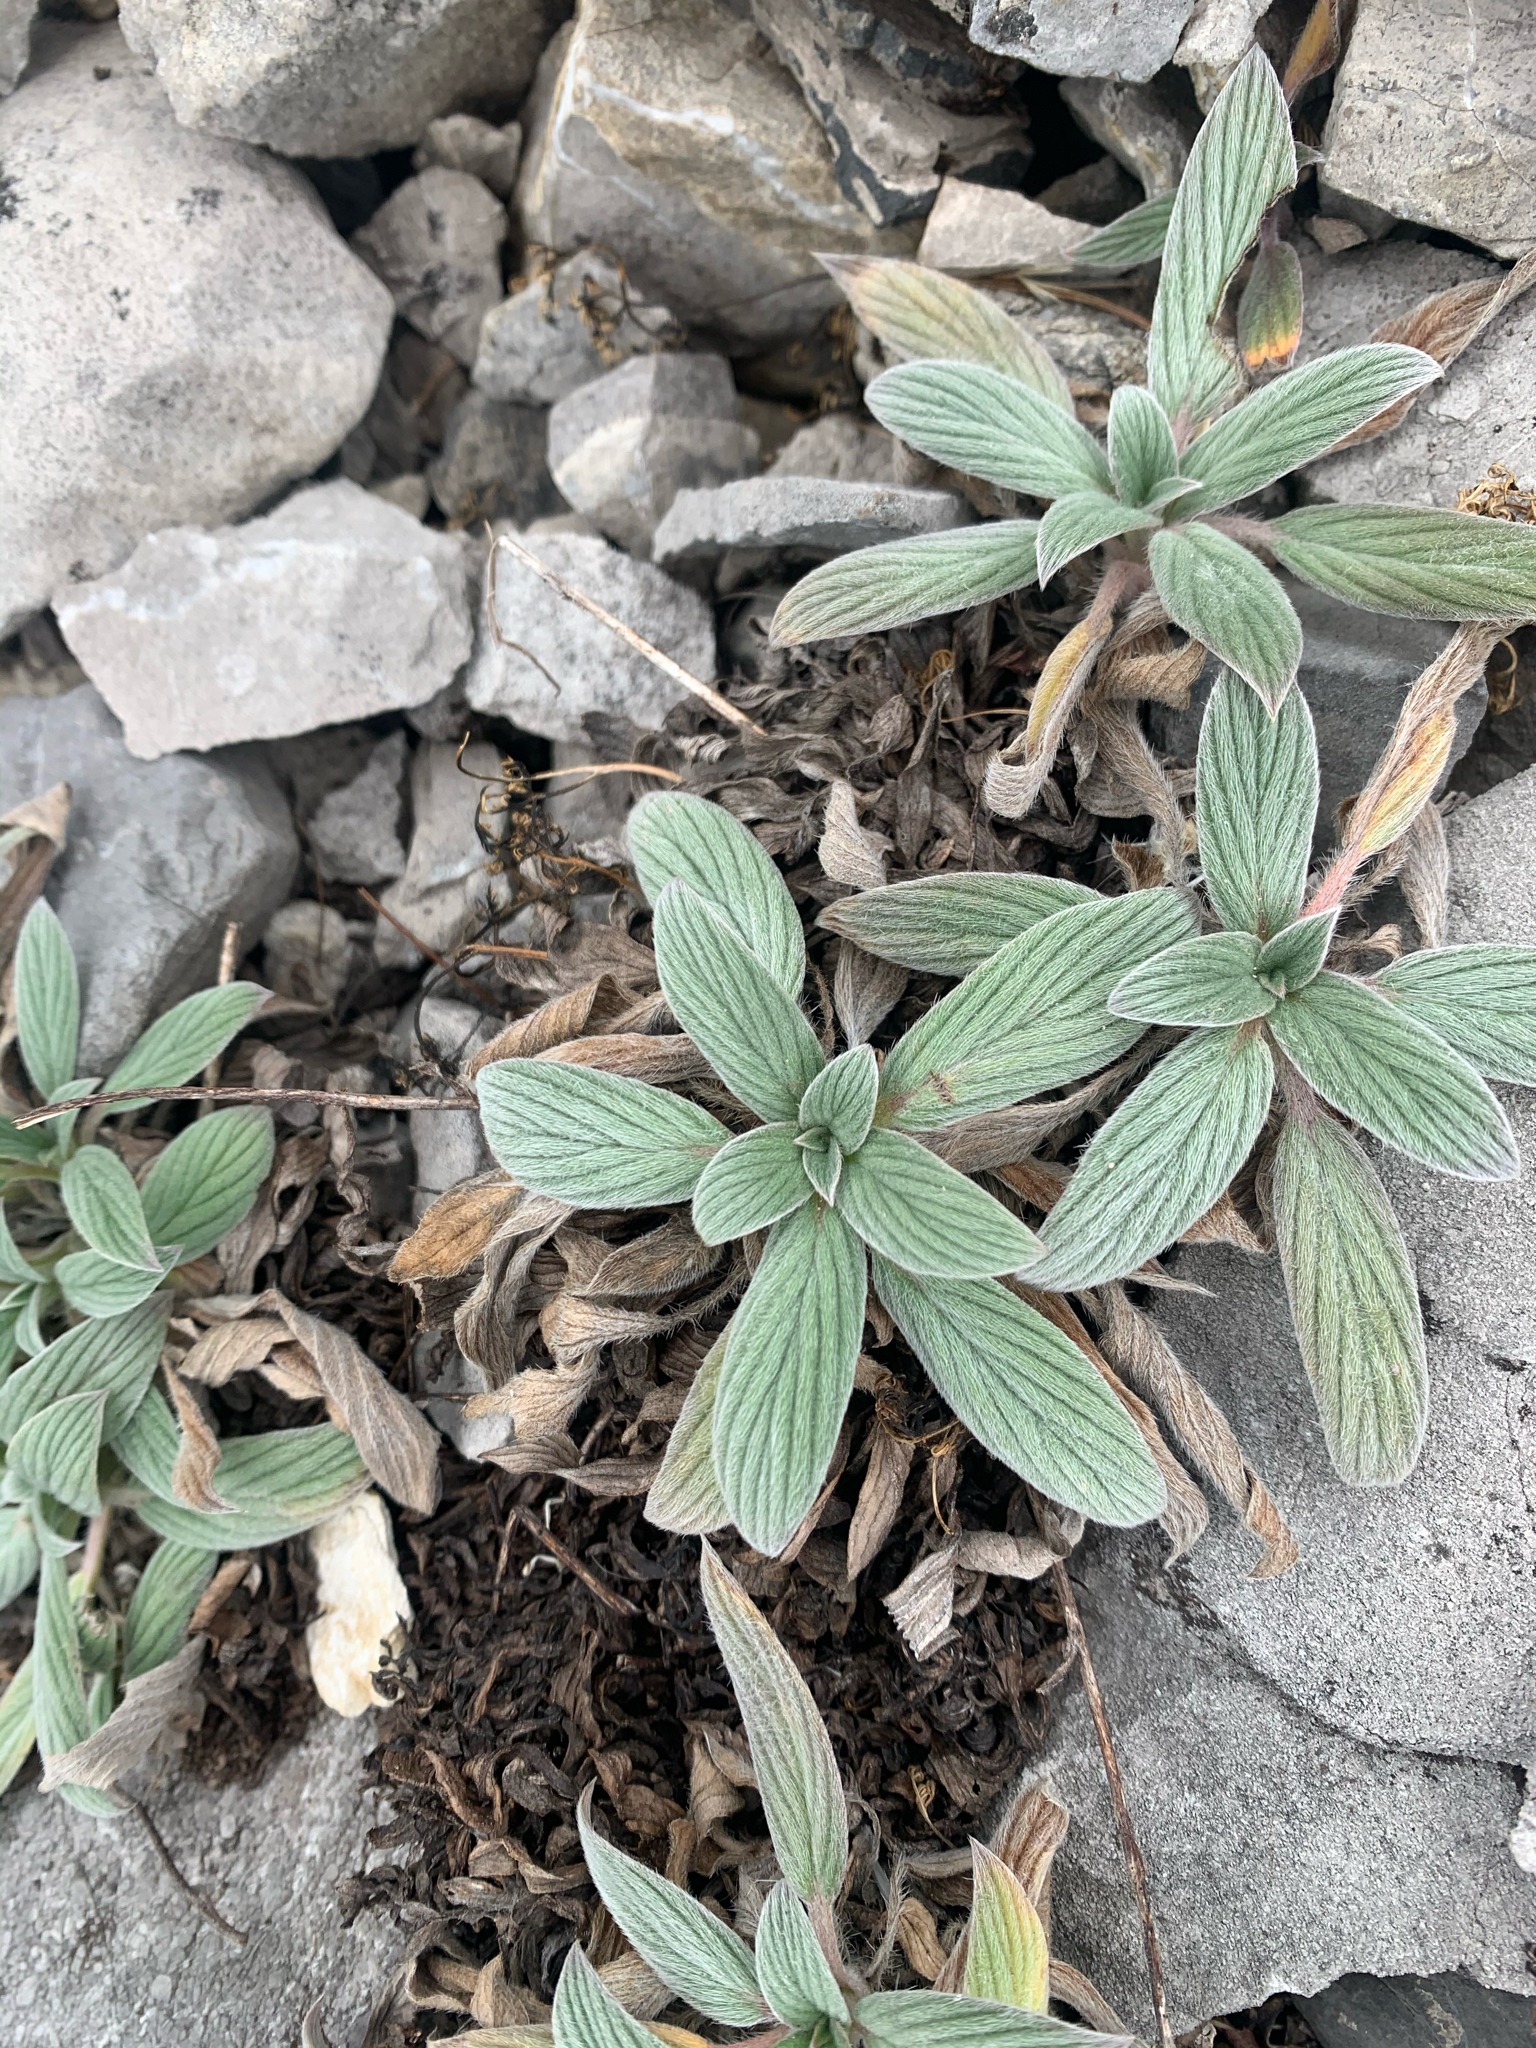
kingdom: Plantae
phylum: Tracheophyta
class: Magnoliopsida
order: Boraginales
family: Hydrophyllaceae
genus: Phacelia
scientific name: Phacelia hastata
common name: Silver-leaved phacelia
